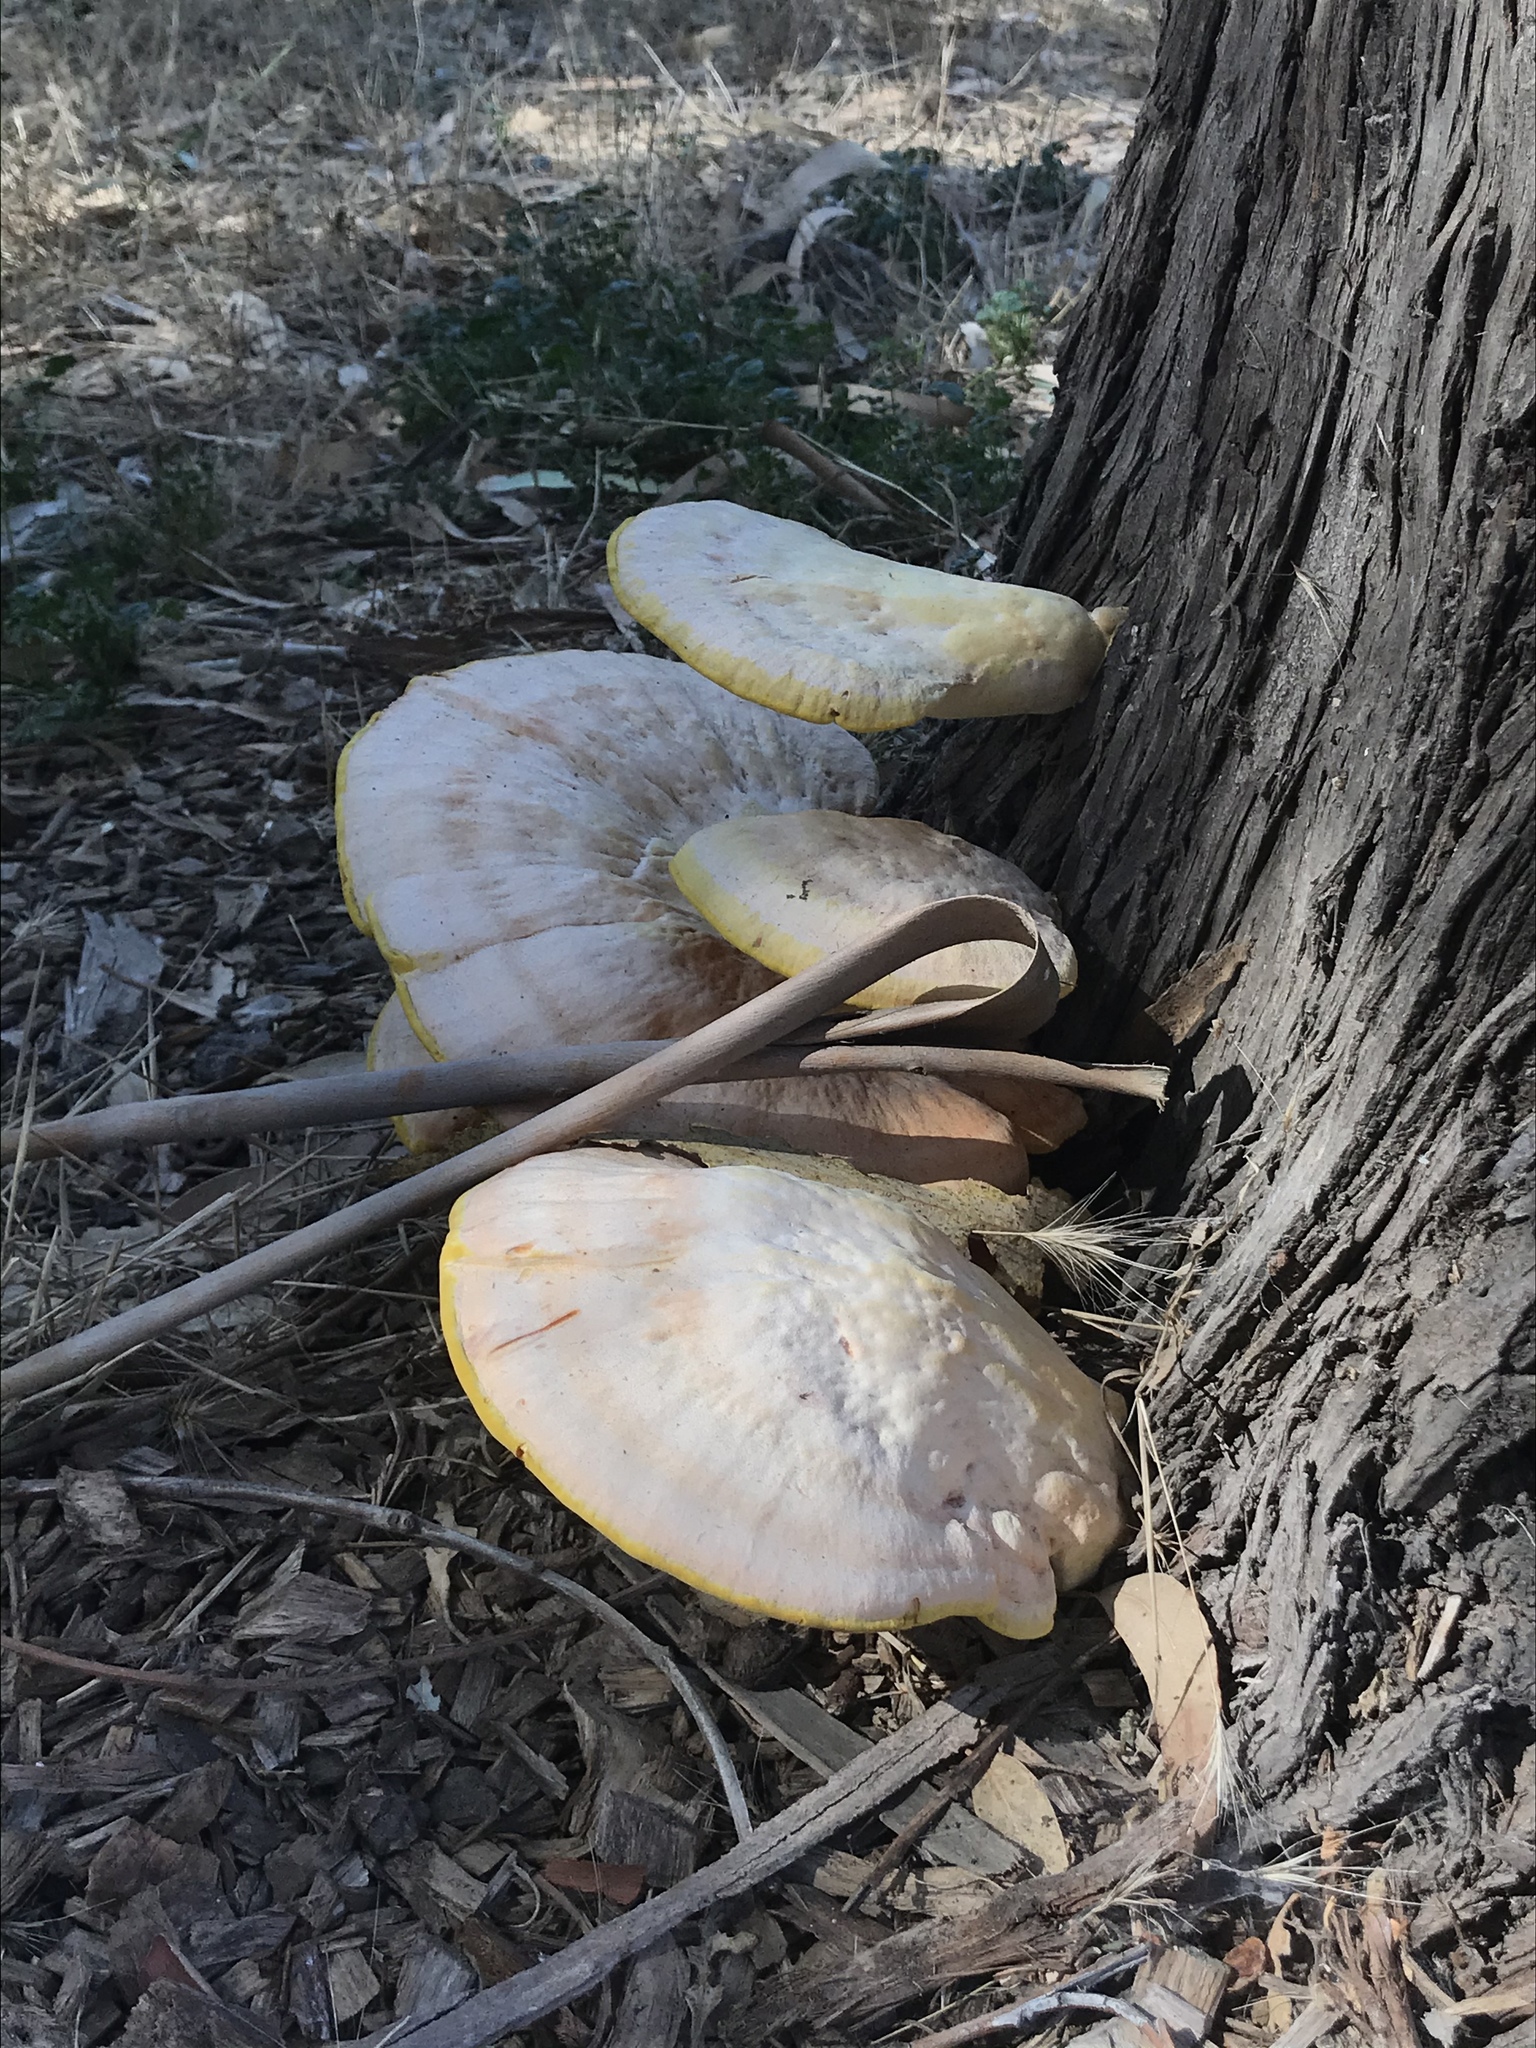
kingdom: Fungi
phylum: Basidiomycota
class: Agaricomycetes
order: Polyporales
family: Laetiporaceae
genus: Laetiporus
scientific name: Laetiporus gilbertsonii
